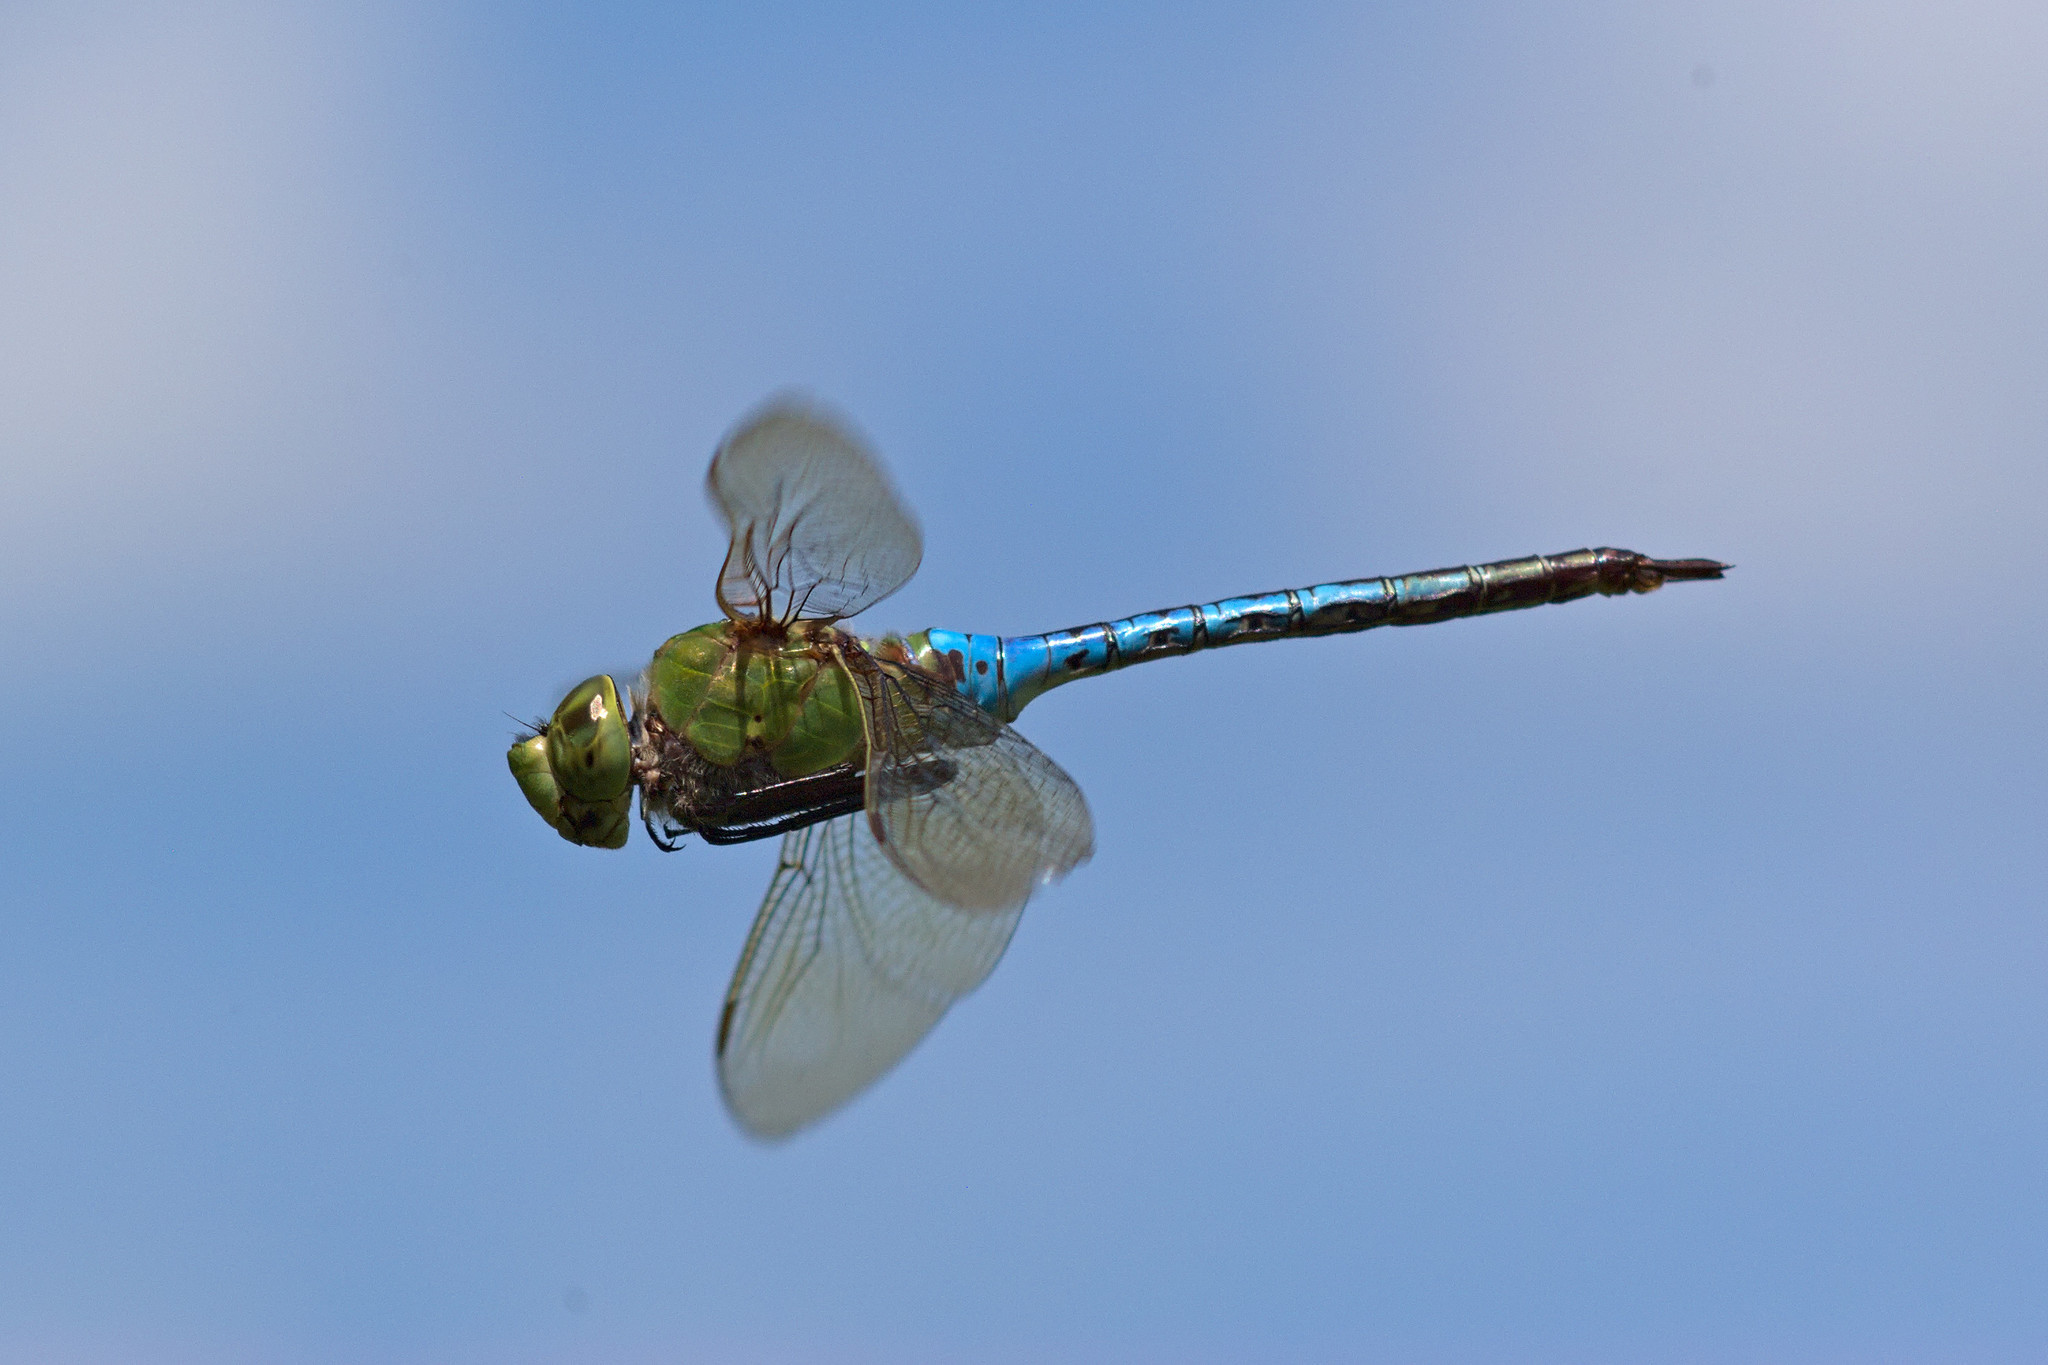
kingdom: Animalia
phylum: Arthropoda
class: Insecta
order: Odonata
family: Aeshnidae
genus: Anax
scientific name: Anax junius
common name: Common green darner
